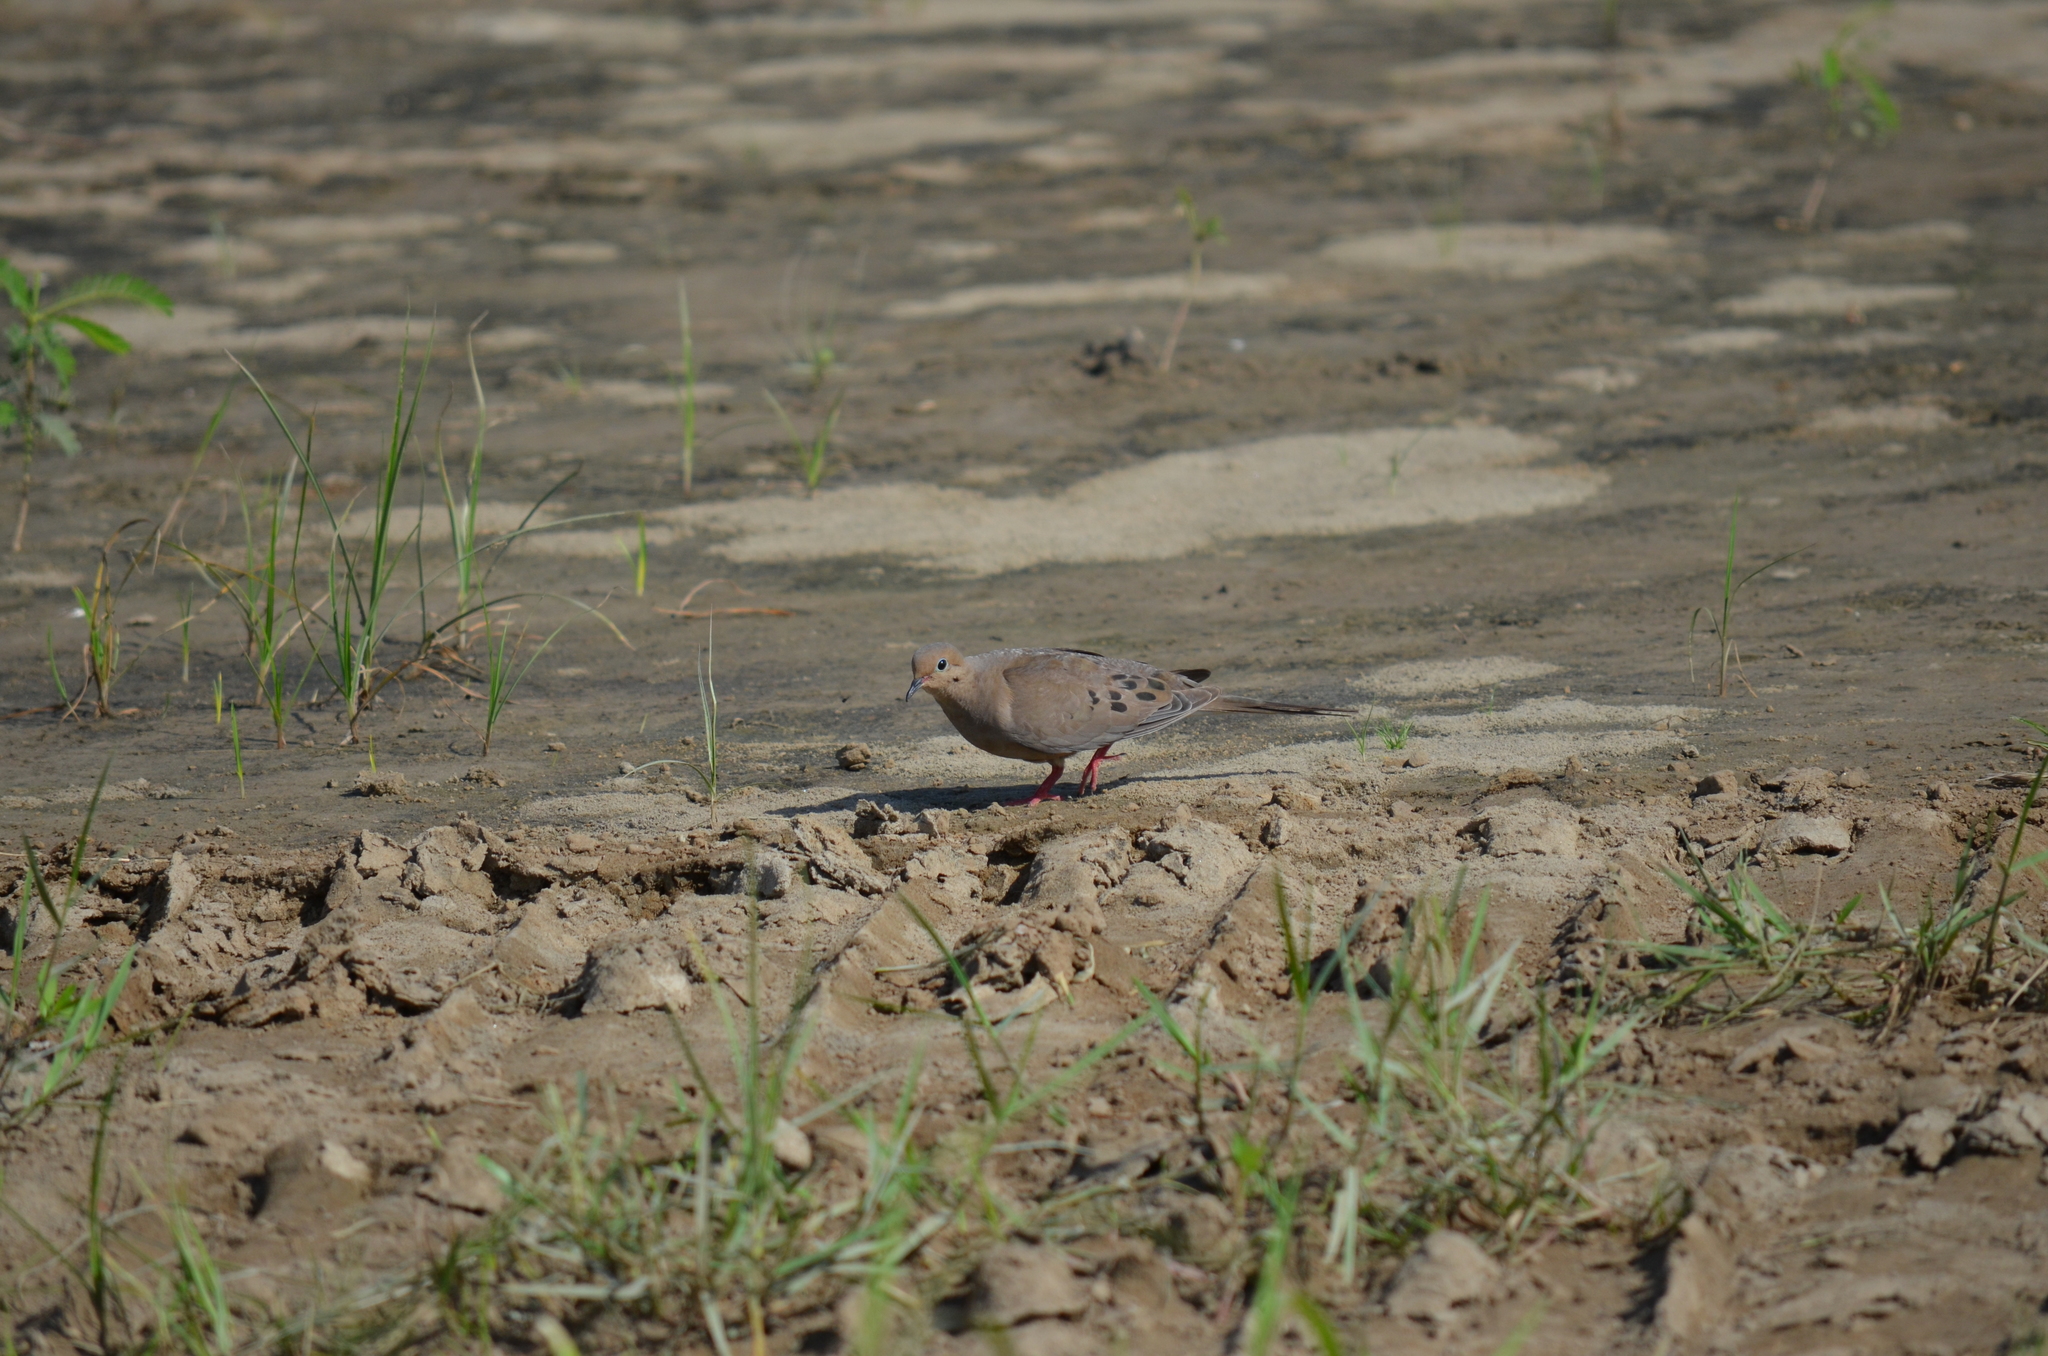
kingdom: Animalia
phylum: Chordata
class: Aves
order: Columbiformes
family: Columbidae
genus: Zenaida
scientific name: Zenaida macroura
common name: Mourning dove
